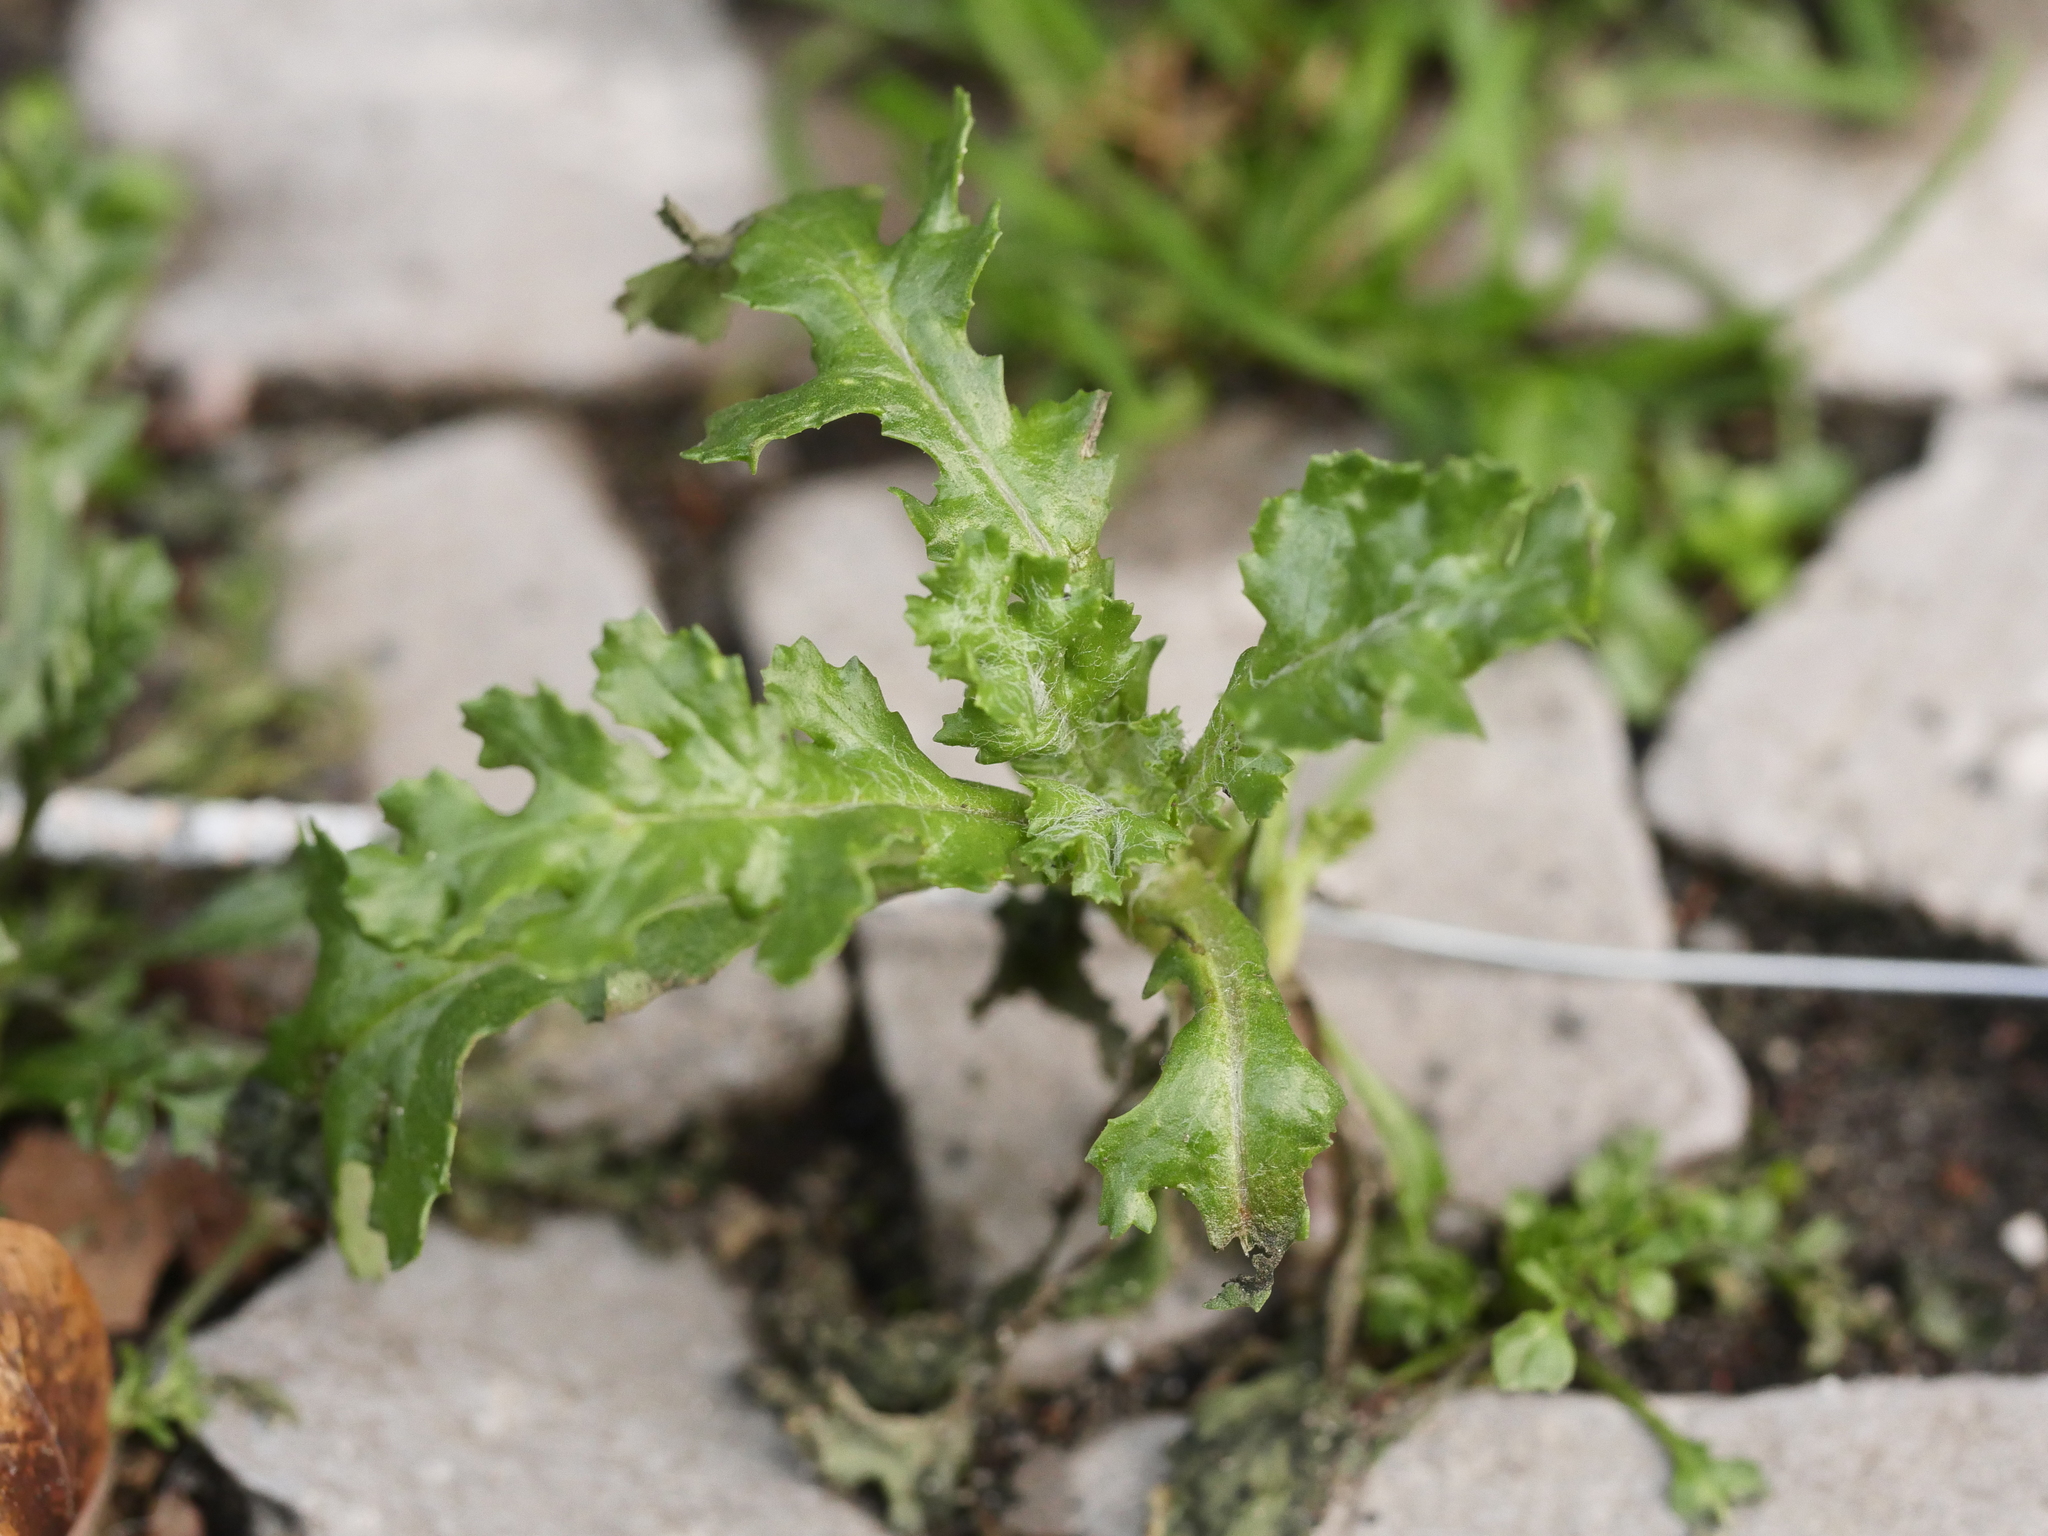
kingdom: Plantae
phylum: Tracheophyta
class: Magnoliopsida
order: Asterales
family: Asteraceae
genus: Senecio
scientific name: Senecio vulgaris
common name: Old-man-in-the-spring
